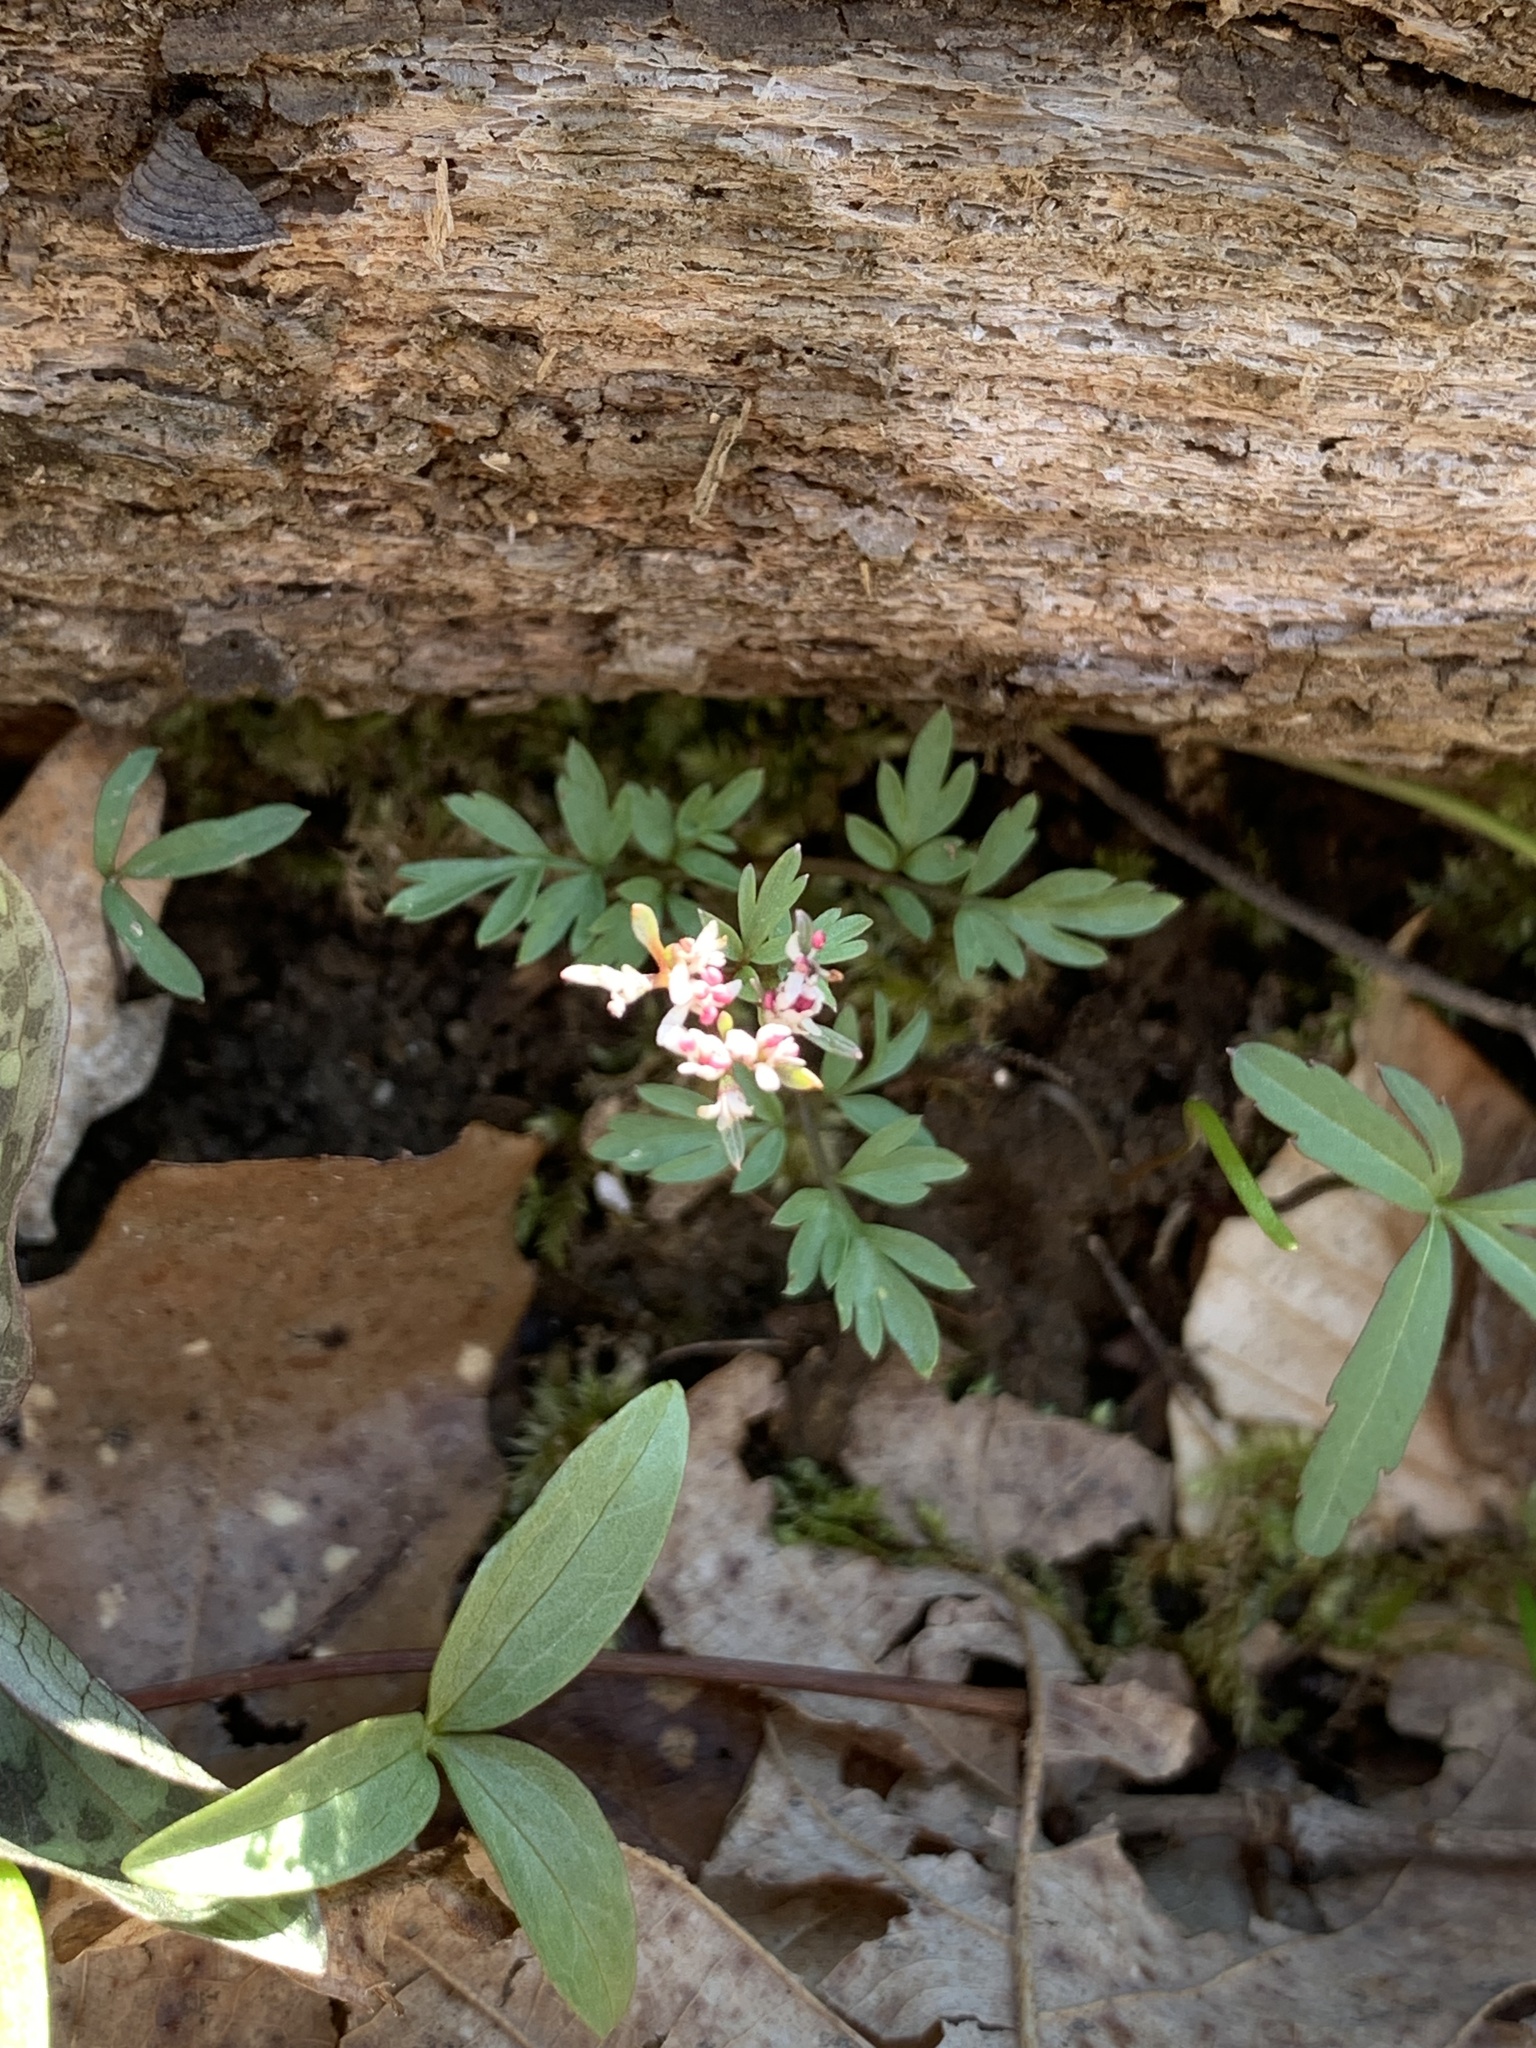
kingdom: Plantae
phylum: Tracheophyta
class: Magnoliopsida
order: Apiales
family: Apiaceae
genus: Erigenia
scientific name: Erigenia bulbosa
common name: Pepper-and-salt
